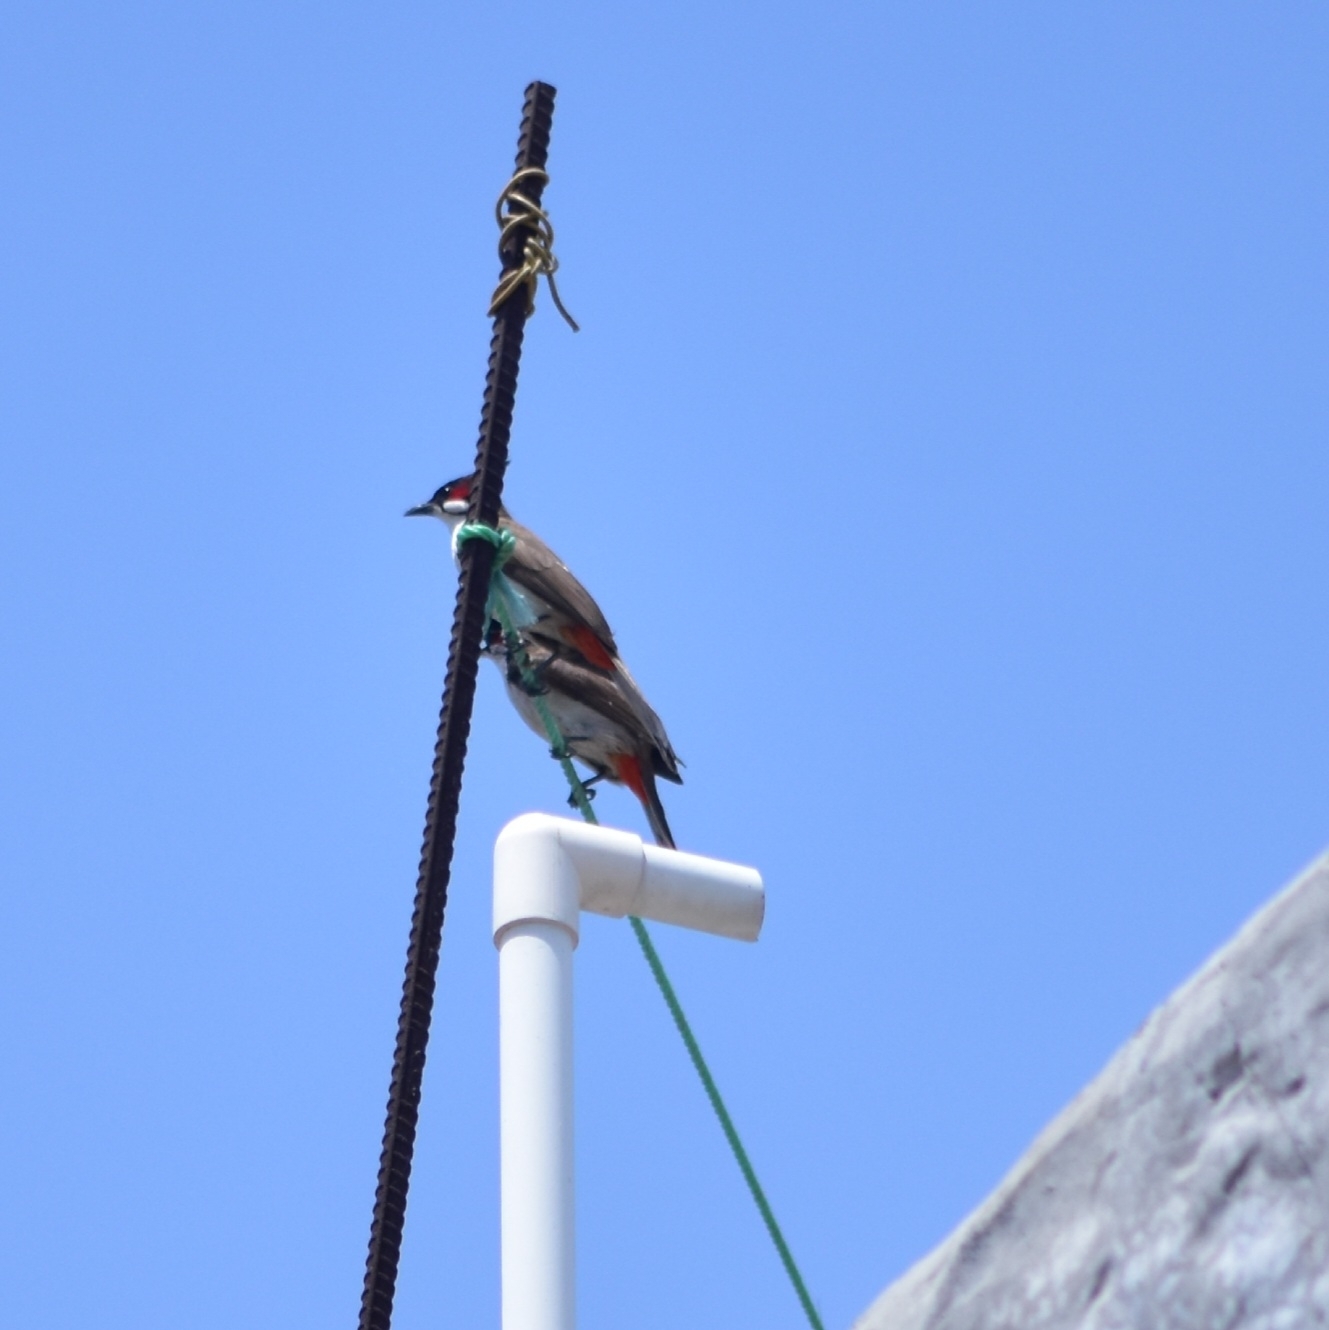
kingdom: Animalia
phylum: Chordata
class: Aves
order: Passeriformes
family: Pycnonotidae
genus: Pycnonotus
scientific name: Pycnonotus jocosus
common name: Red-whiskered bulbul
